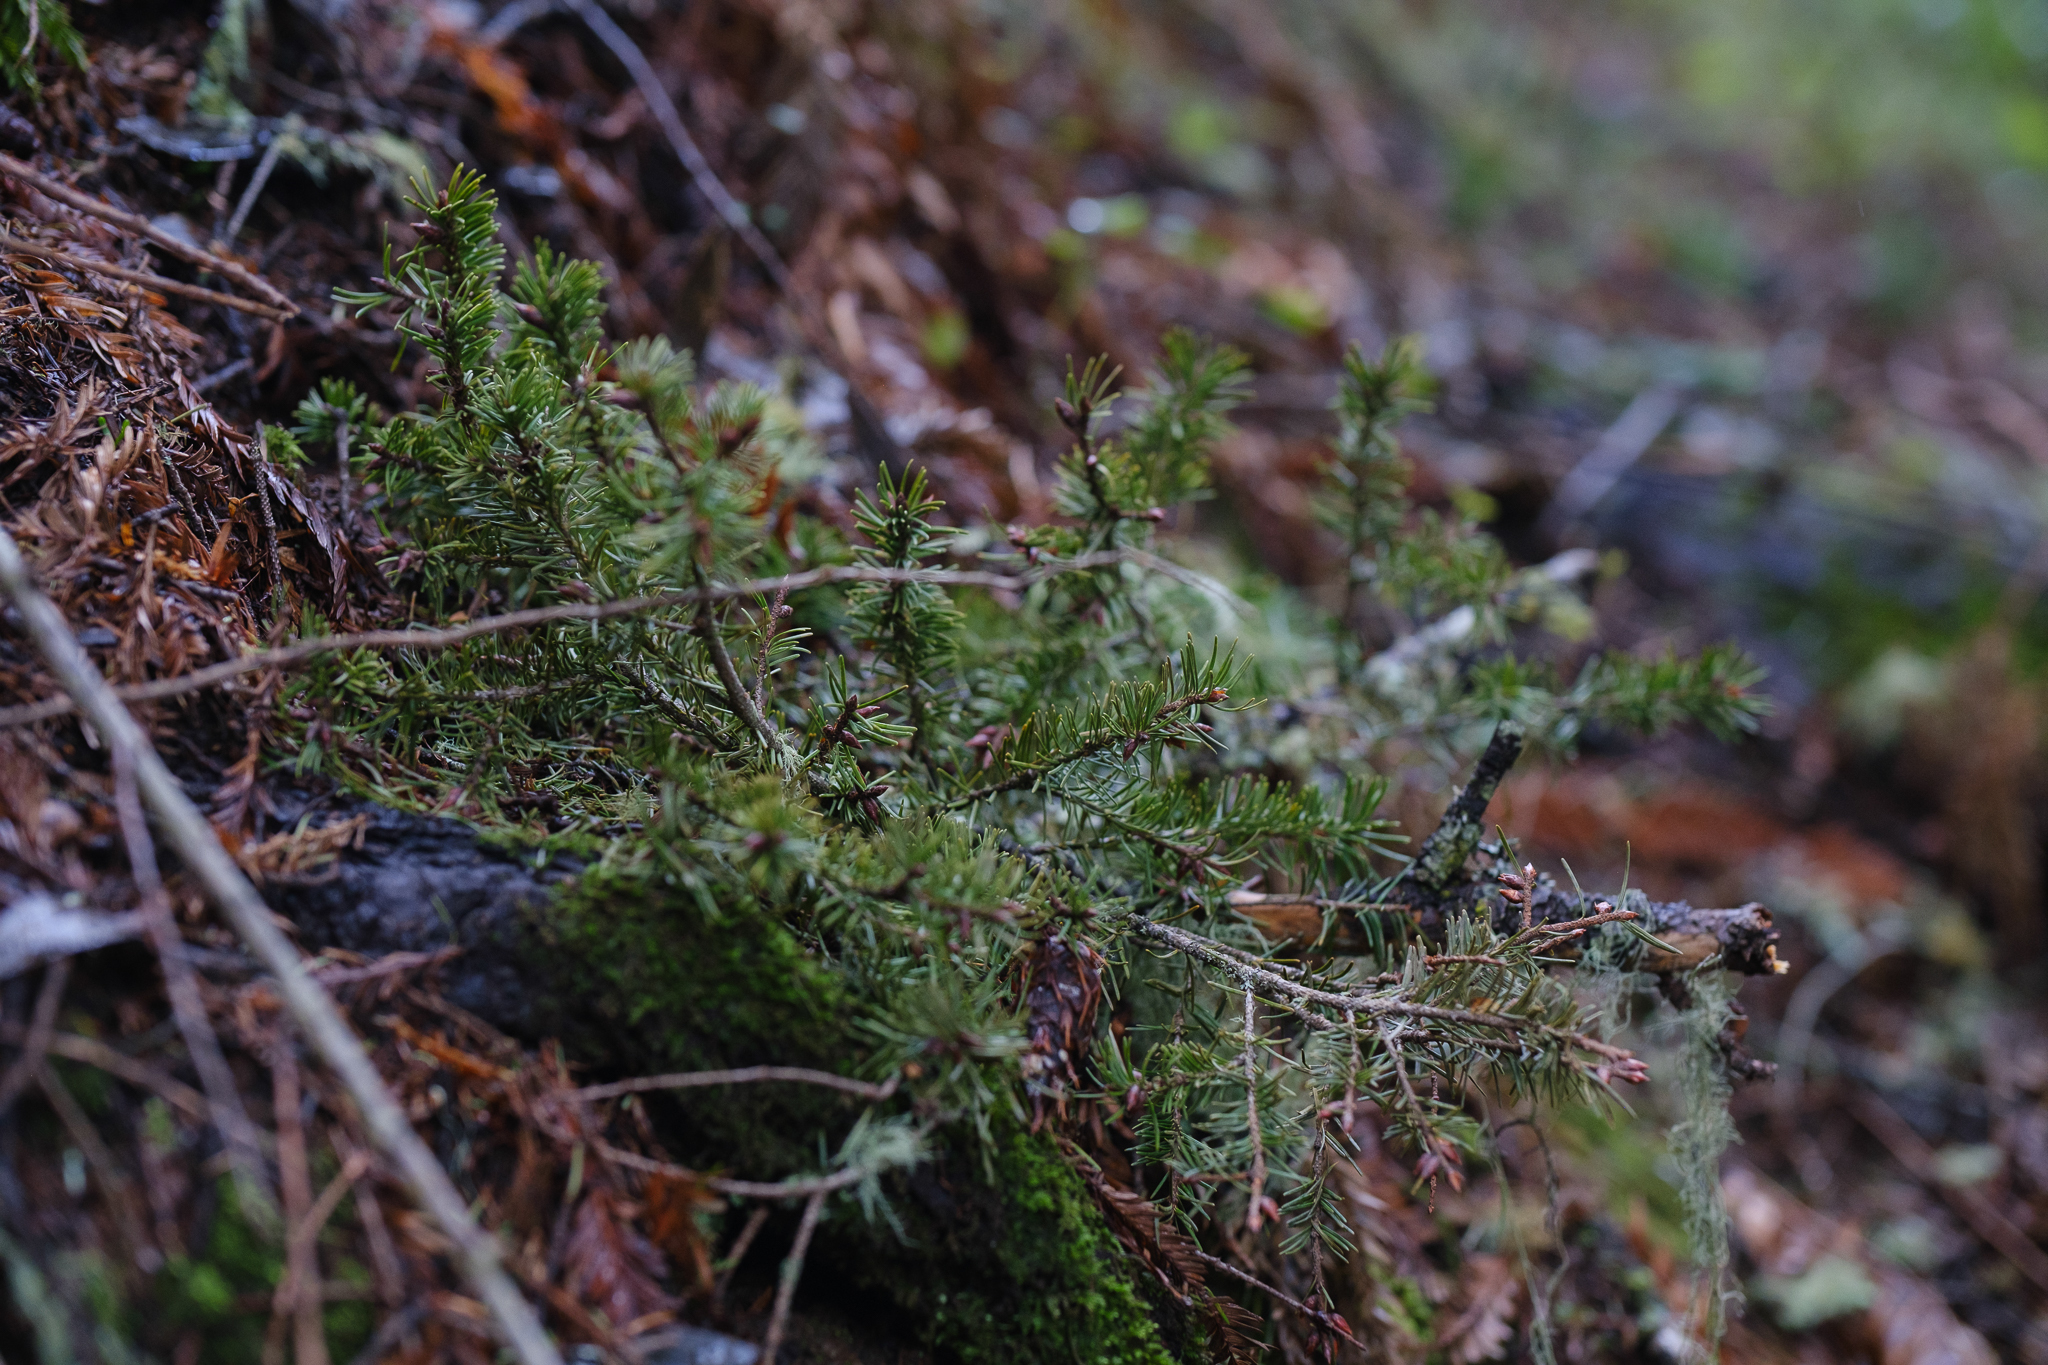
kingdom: Plantae
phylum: Tracheophyta
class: Pinopsida
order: Pinales
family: Pinaceae
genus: Pseudotsuga
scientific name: Pseudotsuga menziesii
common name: Douglas fir
